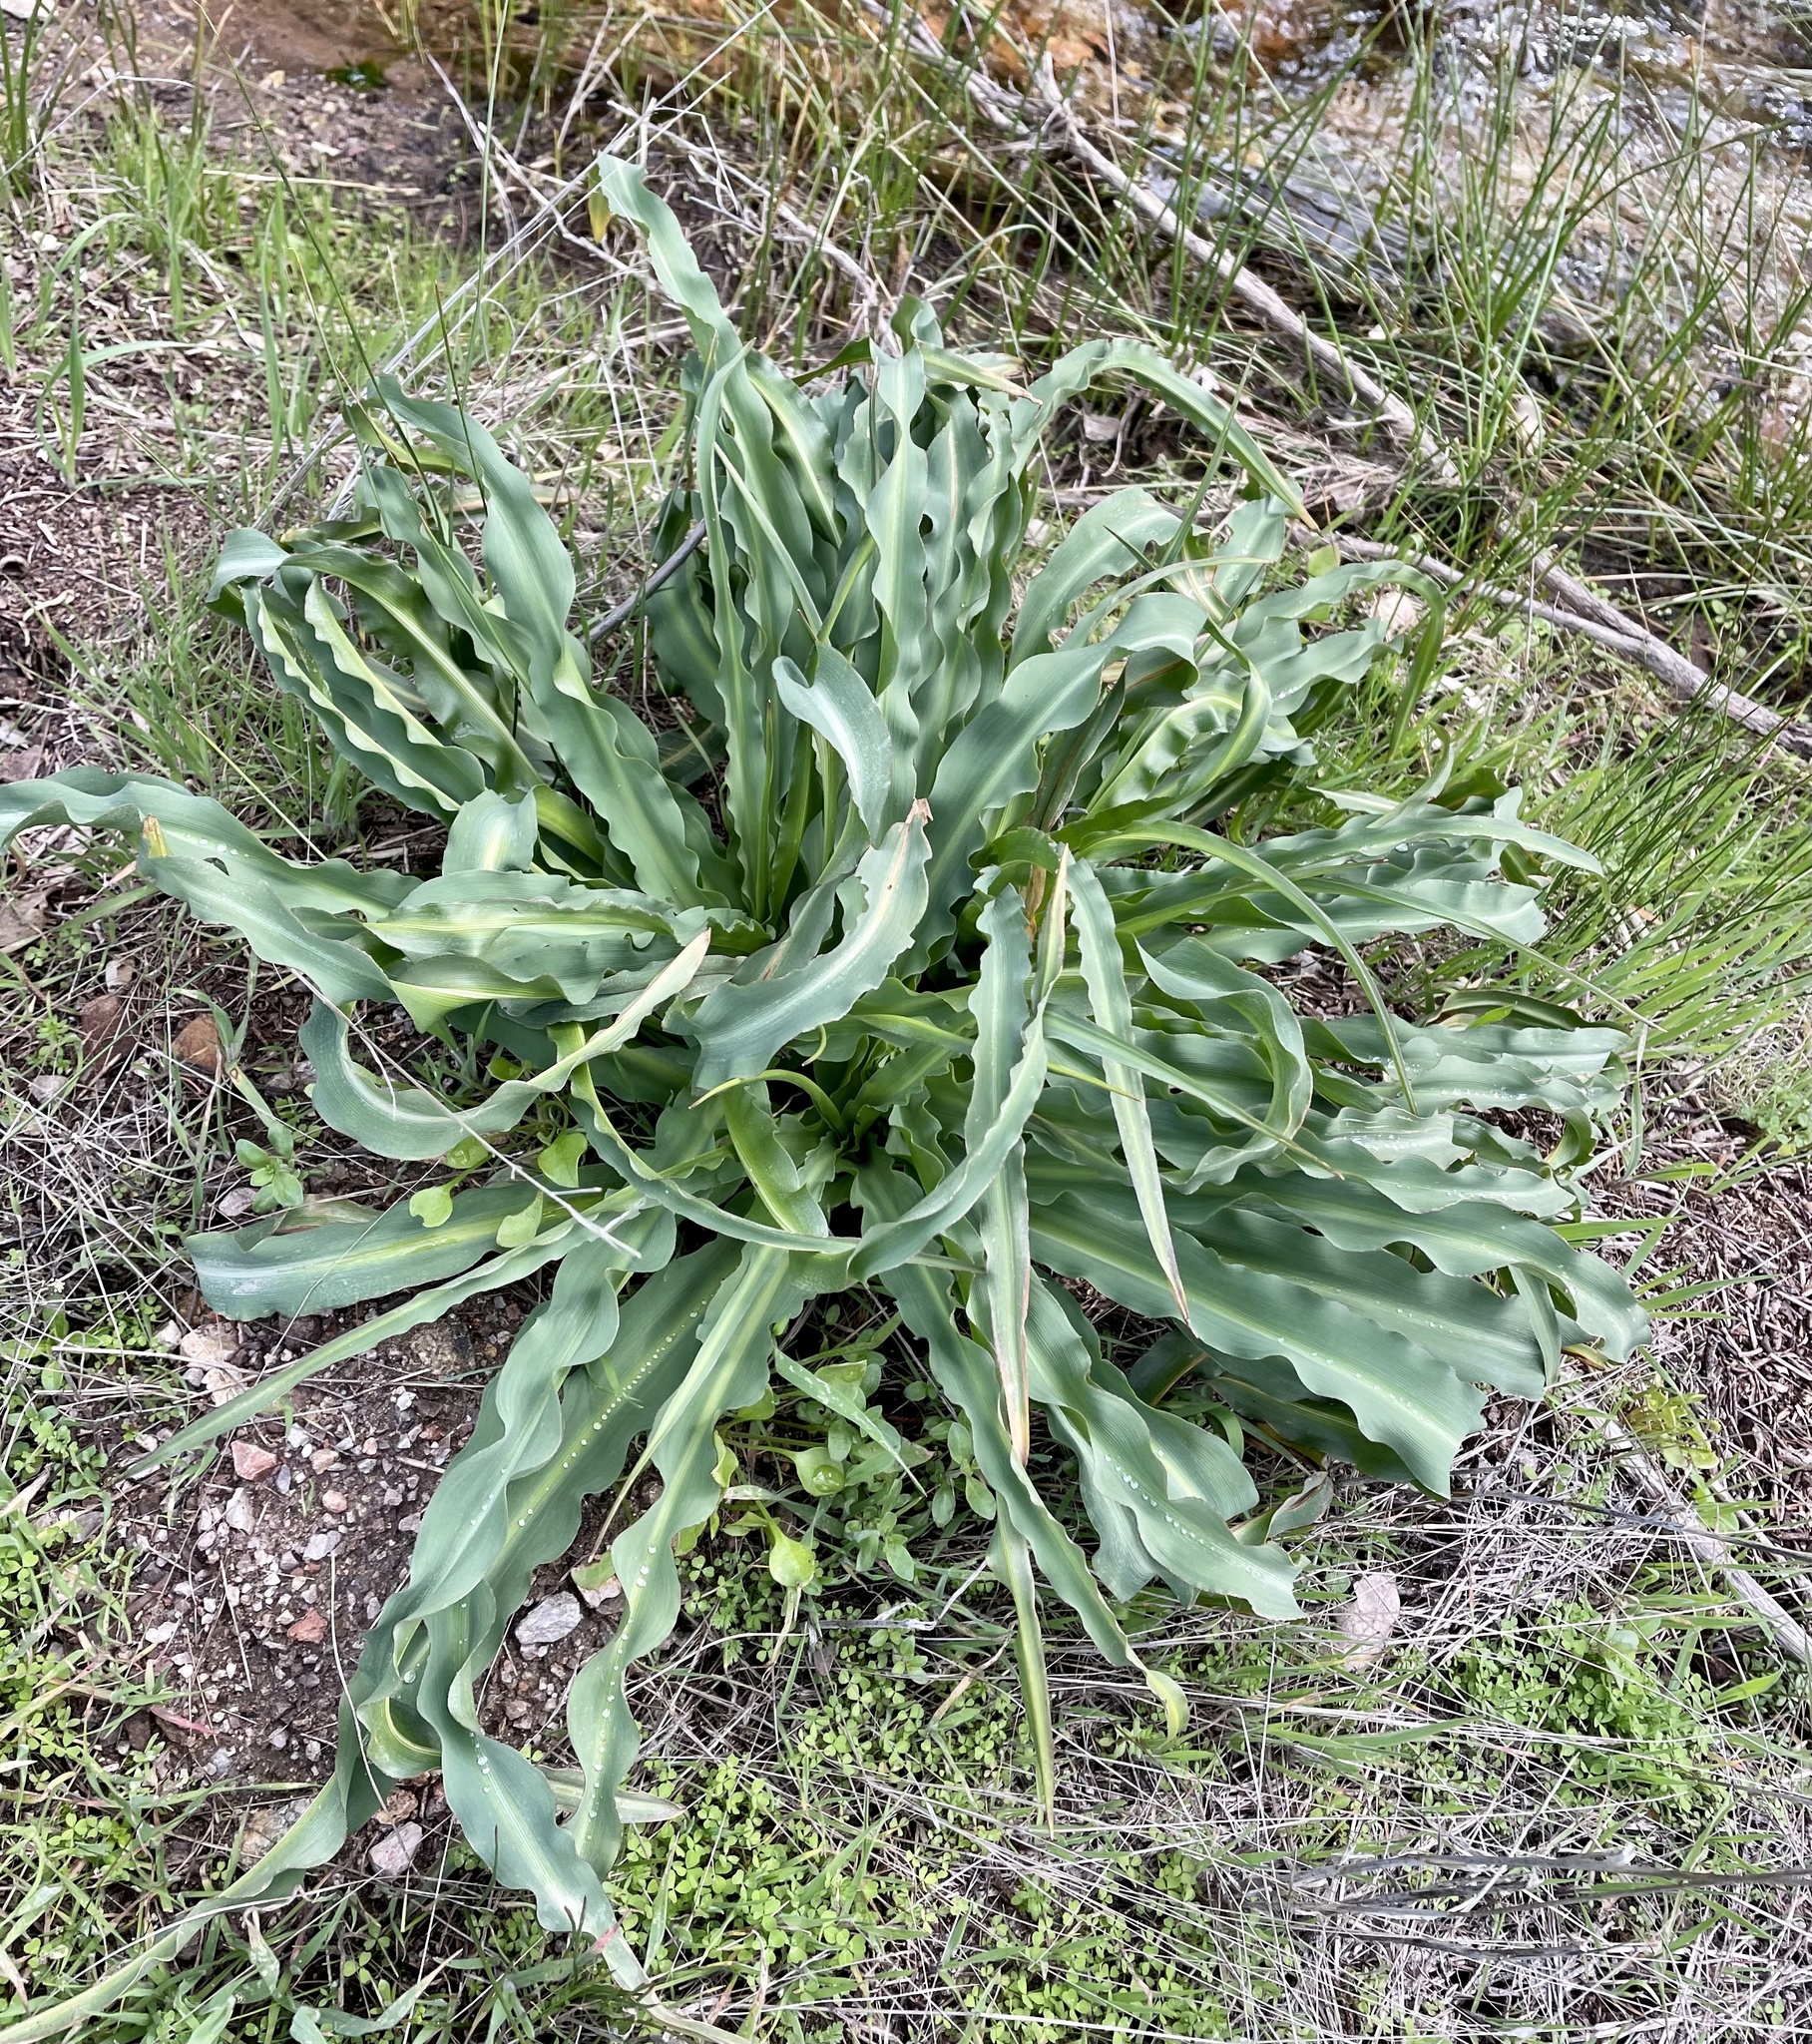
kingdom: Plantae
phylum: Tracheophyta
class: Liliopsida
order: Asparagales
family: Asparagaceae
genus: Chlorogalum
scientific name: Chlorogalum pomeridianum
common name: Amole
